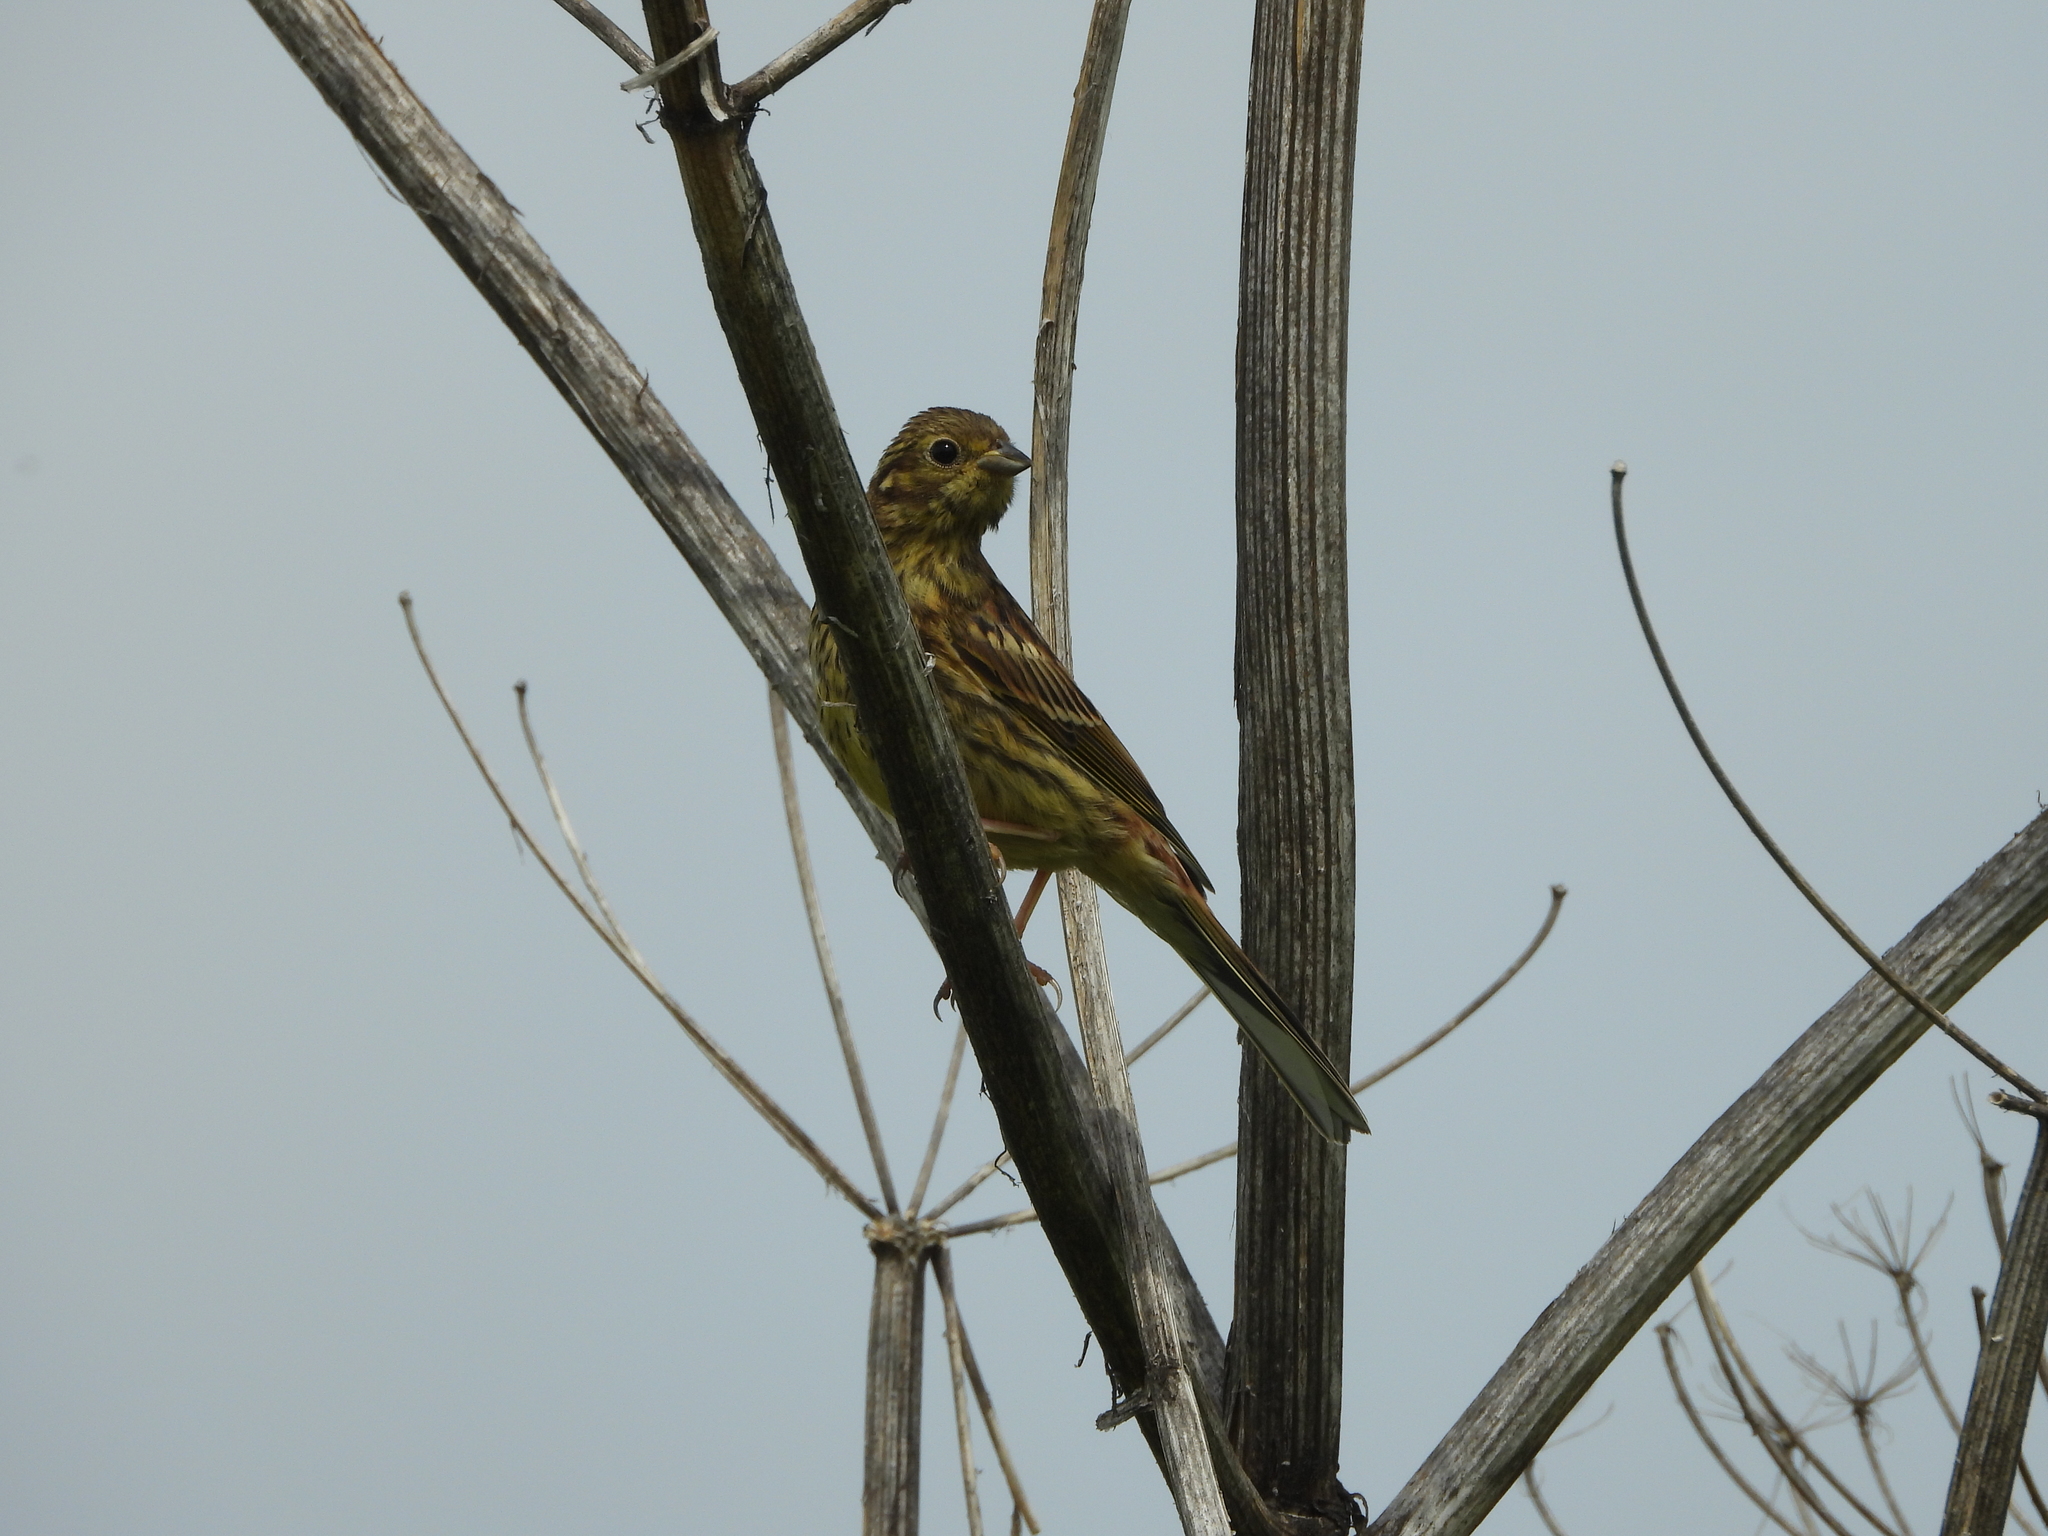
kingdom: Animalia
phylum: Chordata
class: Aves
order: Passeriformes
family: Emberizidae
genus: Emberiza
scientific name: Emberiza citrinella
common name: Yellowhammer
